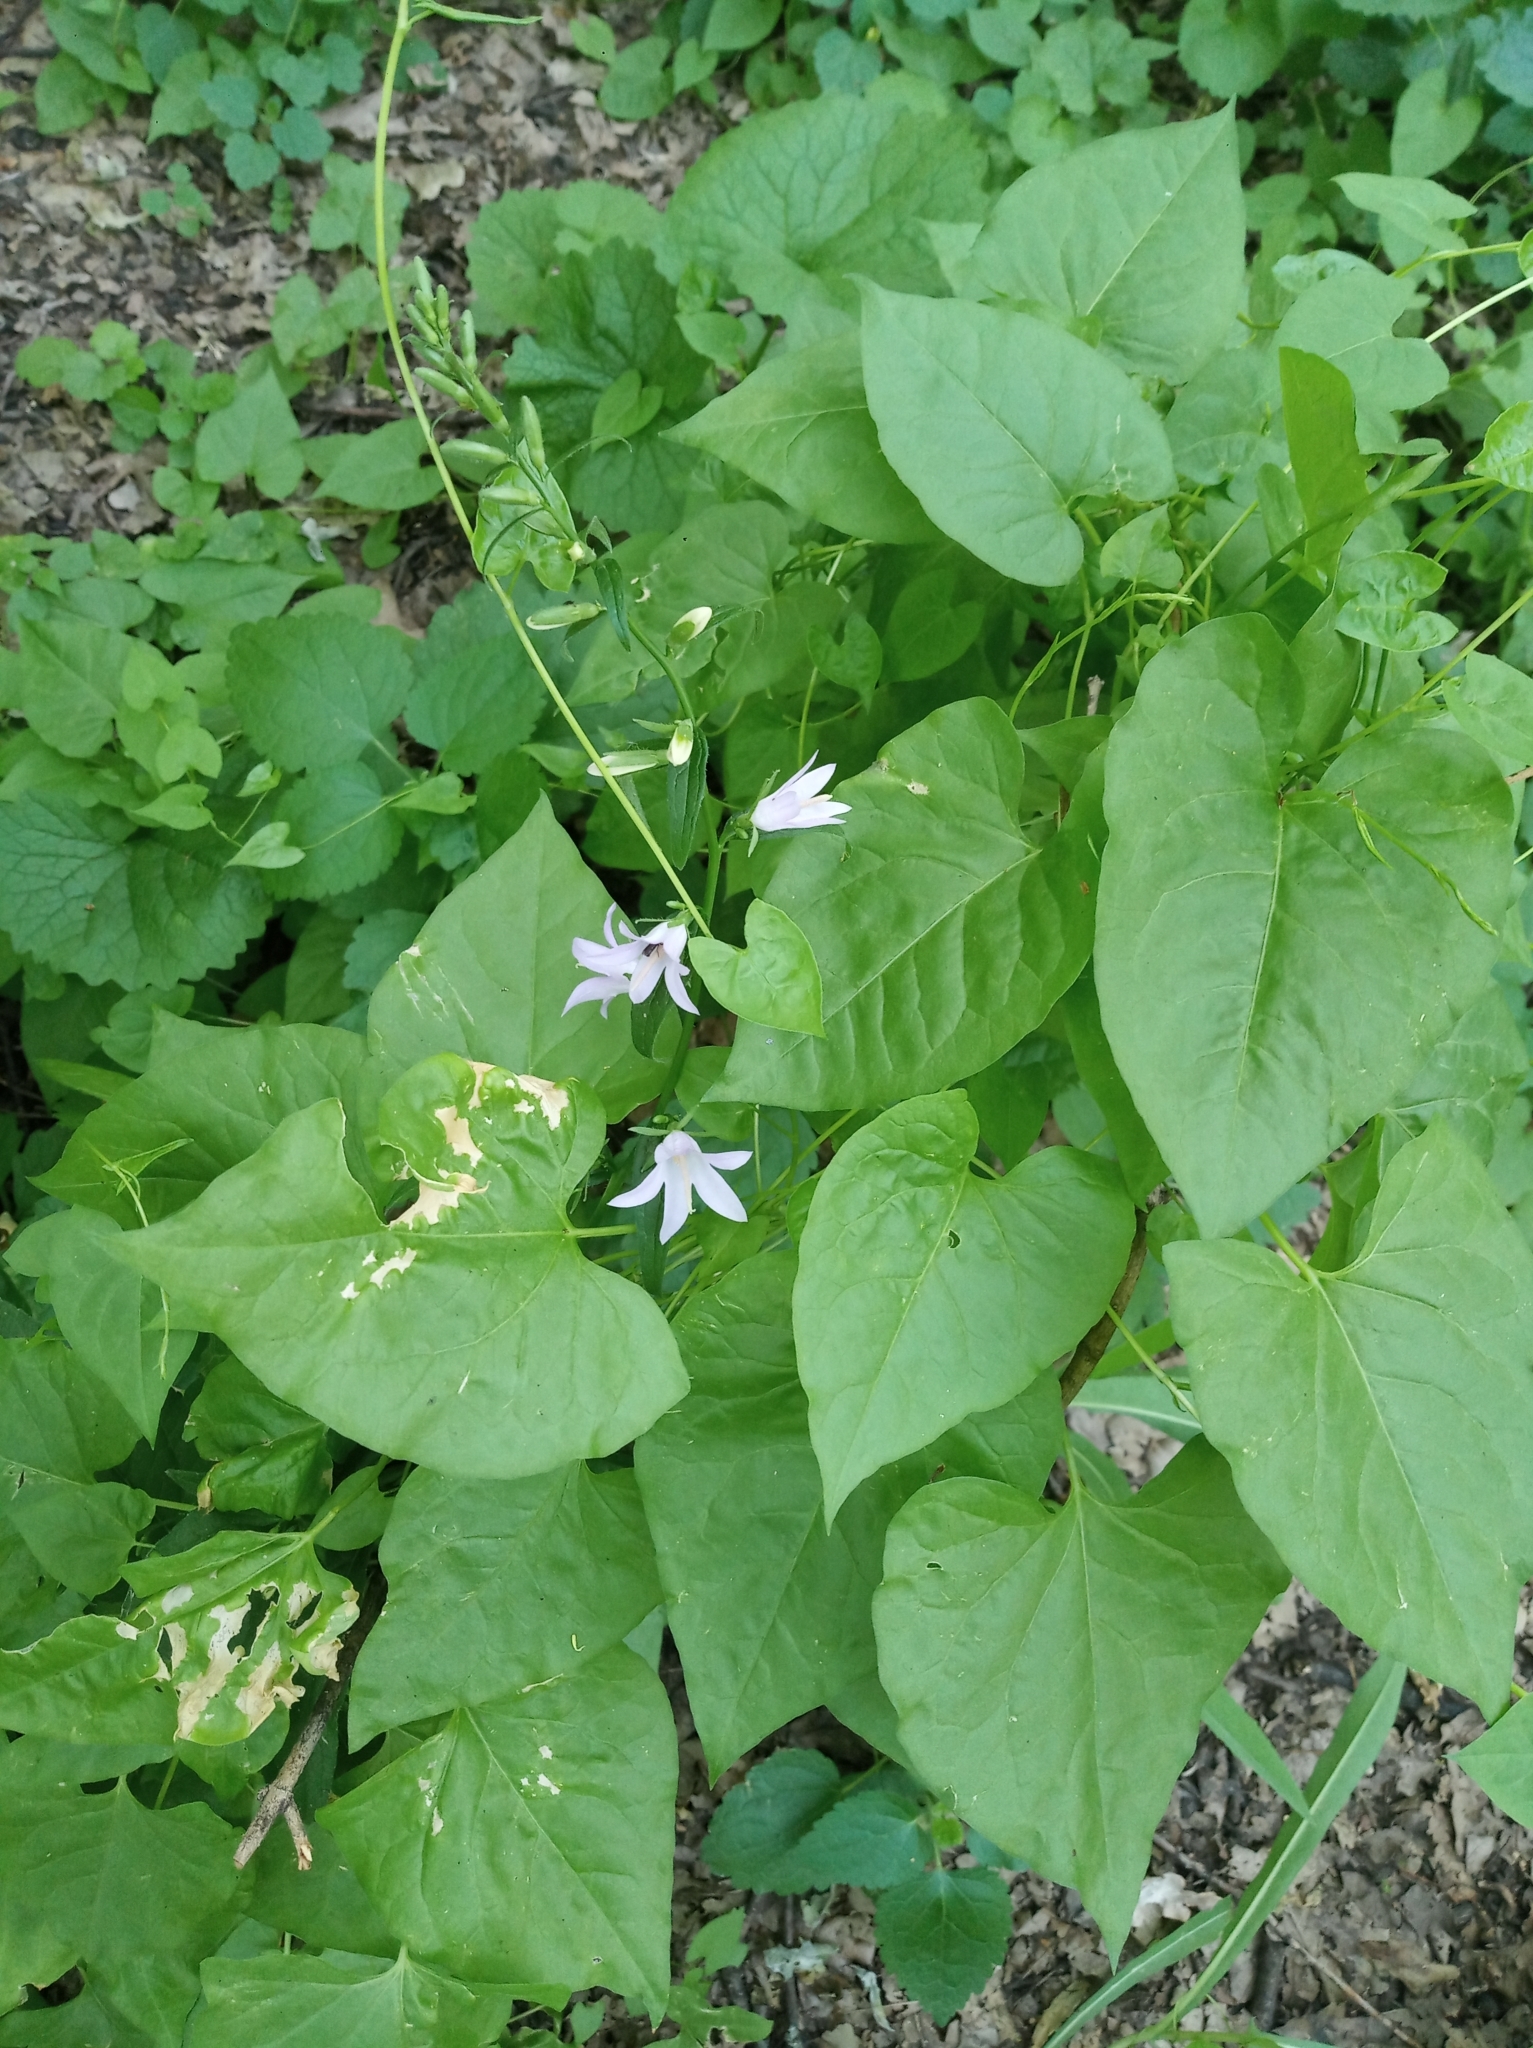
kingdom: Plantae
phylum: Tracheophyta
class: Magnoliopsida
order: Asterales
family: Campanulaceae
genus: Campanula
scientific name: Campanula rapunculoides
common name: Creeping bellflower
